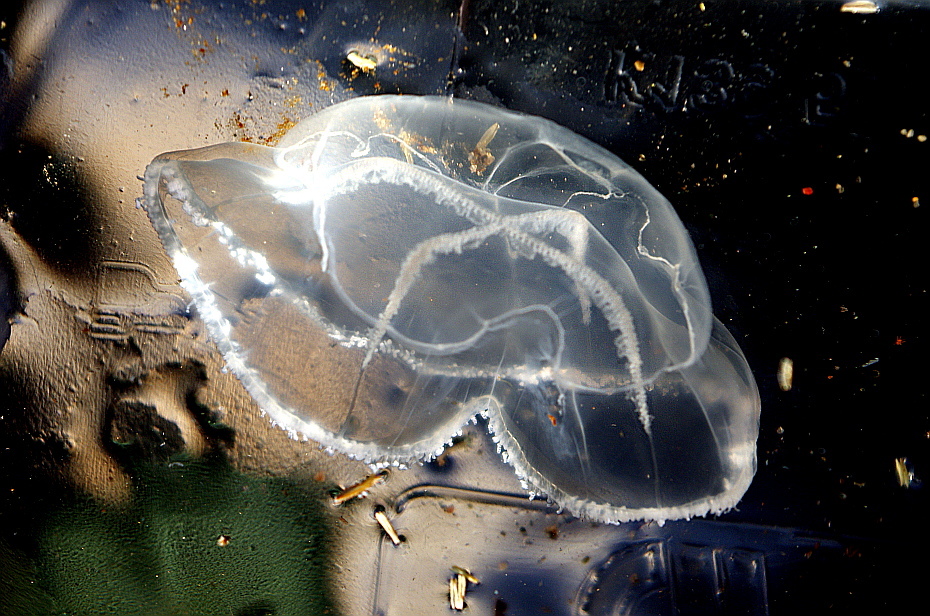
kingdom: Animalia
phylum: Cnidaria
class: Hydrozoa
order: Leptothecata
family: Laodiceidae
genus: Staurostoma
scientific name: Staurostoma mertensii
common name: Whitecross jellyfish
